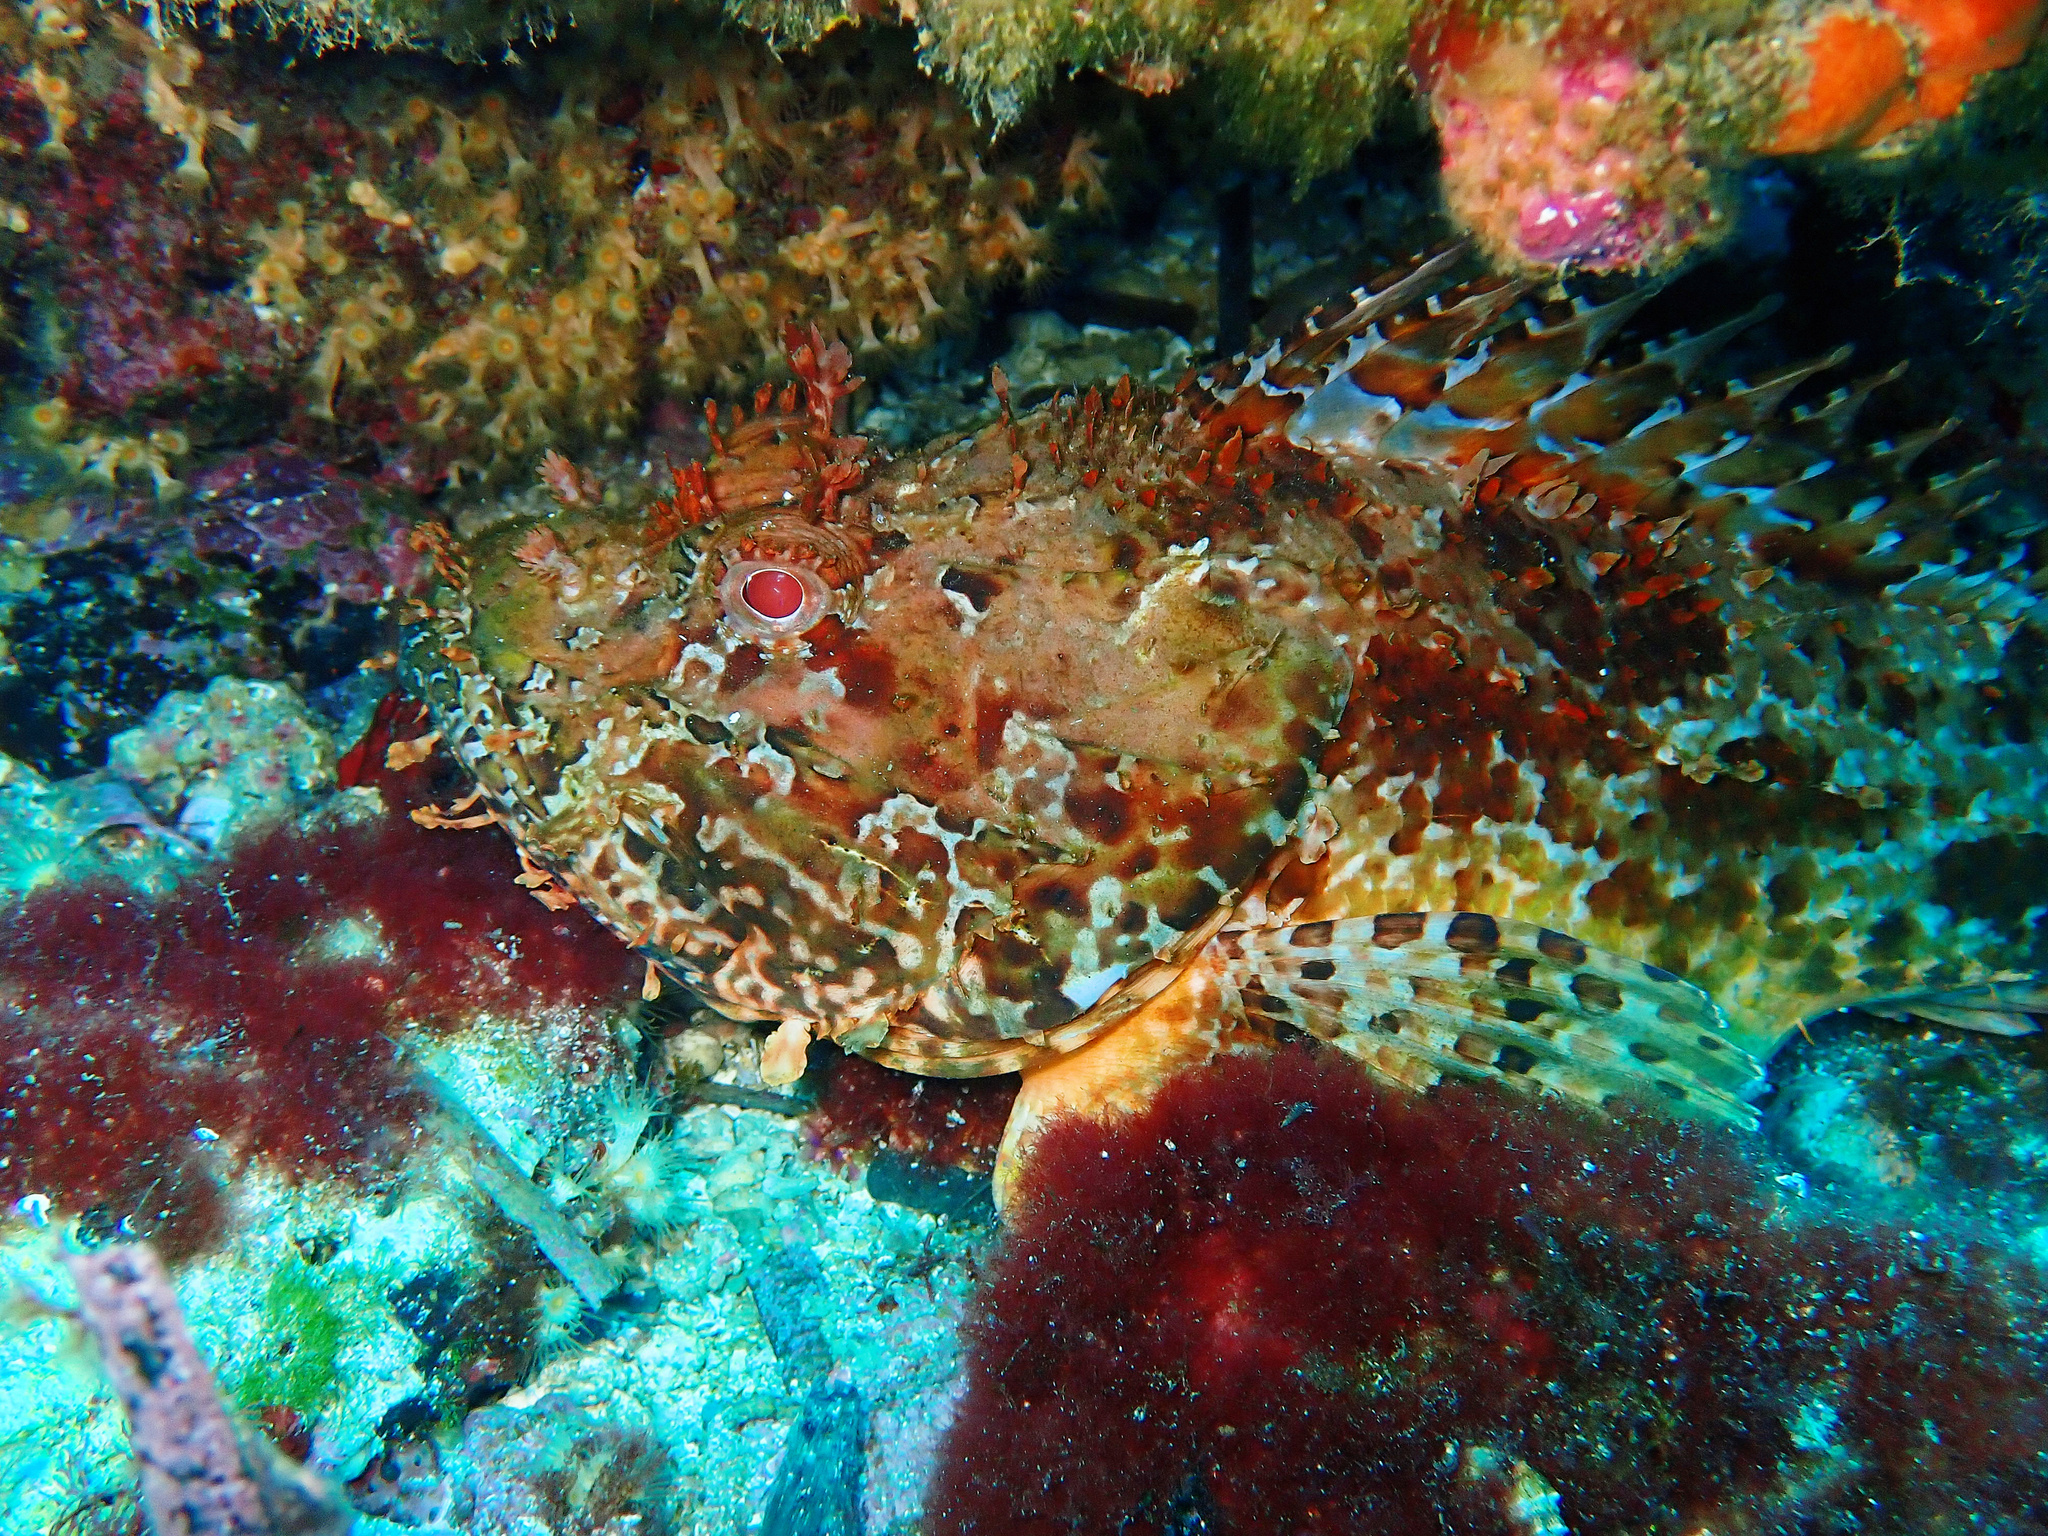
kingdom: Animalia
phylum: Chordata
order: Scorpaeniformes
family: Scorpaenidae
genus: Scorpaena
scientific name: Scorpaena scrofa
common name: Red scorpionfish
